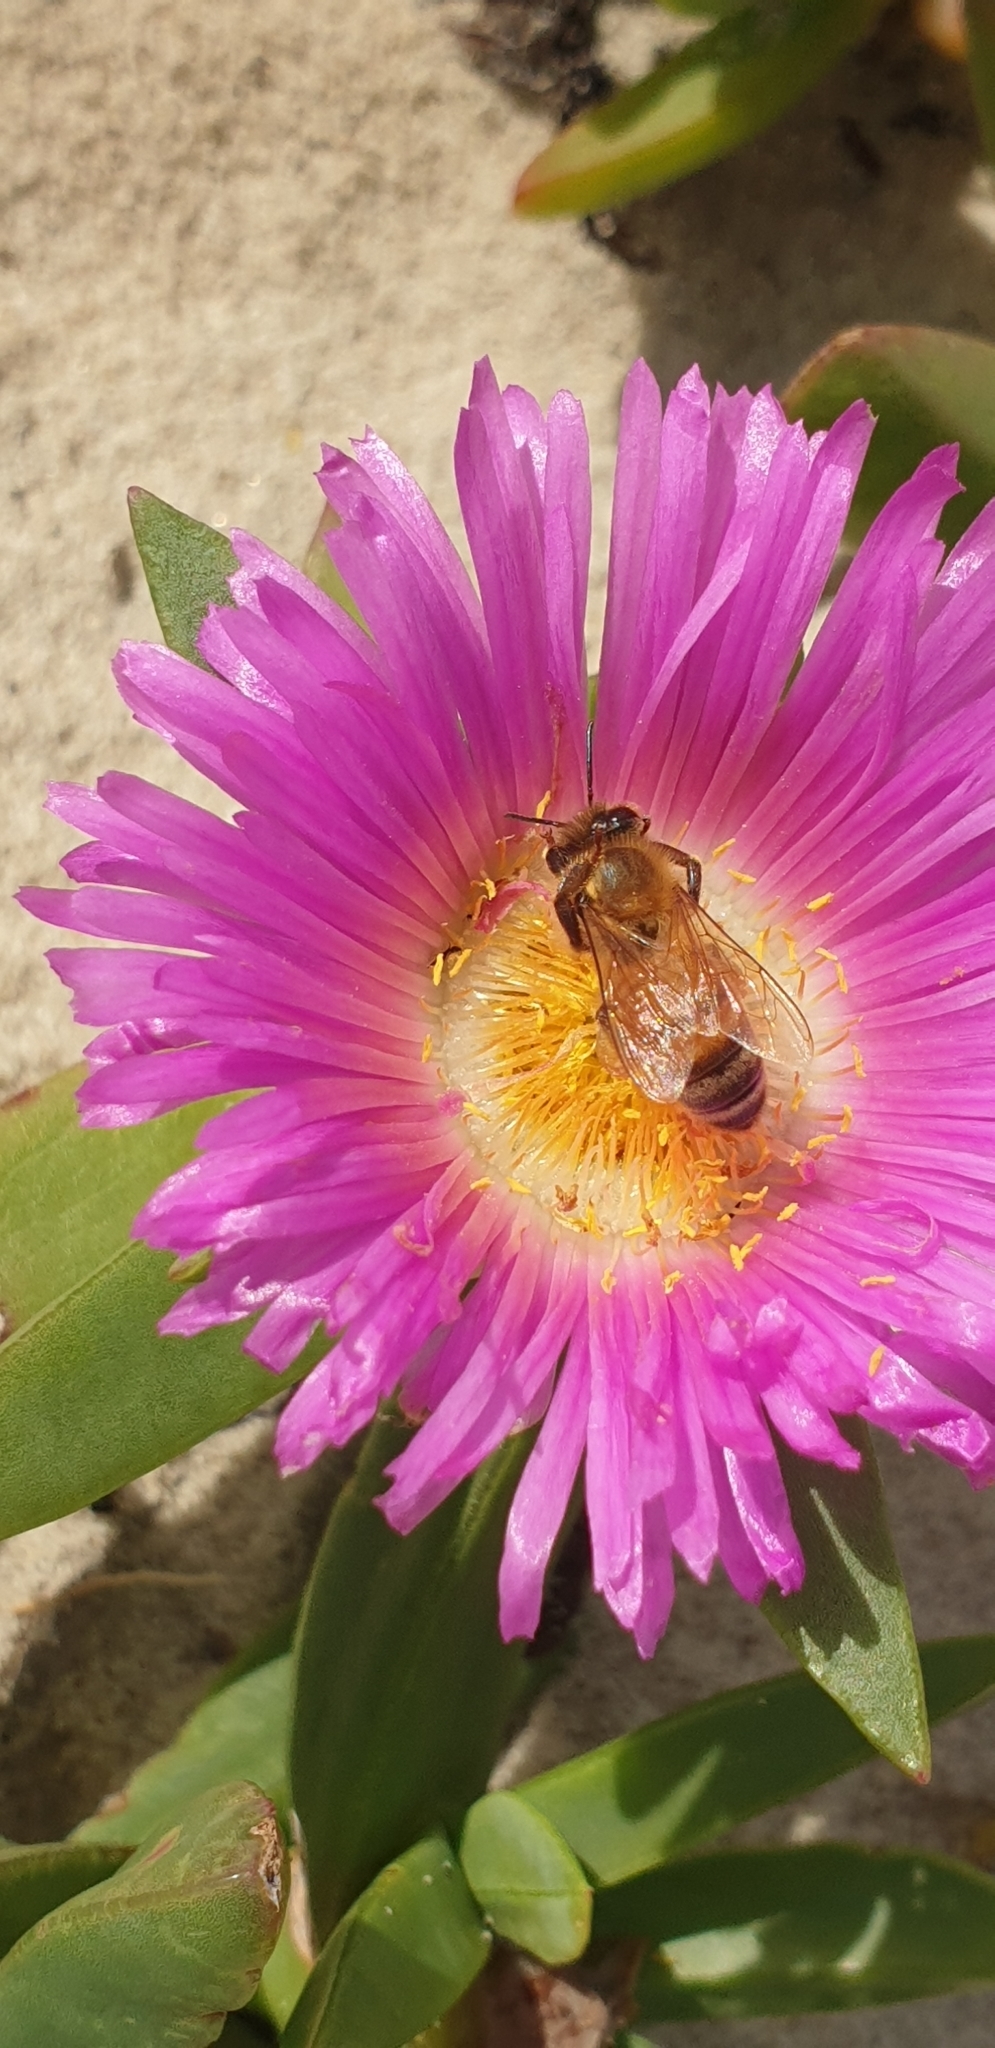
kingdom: Animalia
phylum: Arthropoda
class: Insecta
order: Hymenoptera
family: Apidae
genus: Apis
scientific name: Apis mellifera
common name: Honey bee
